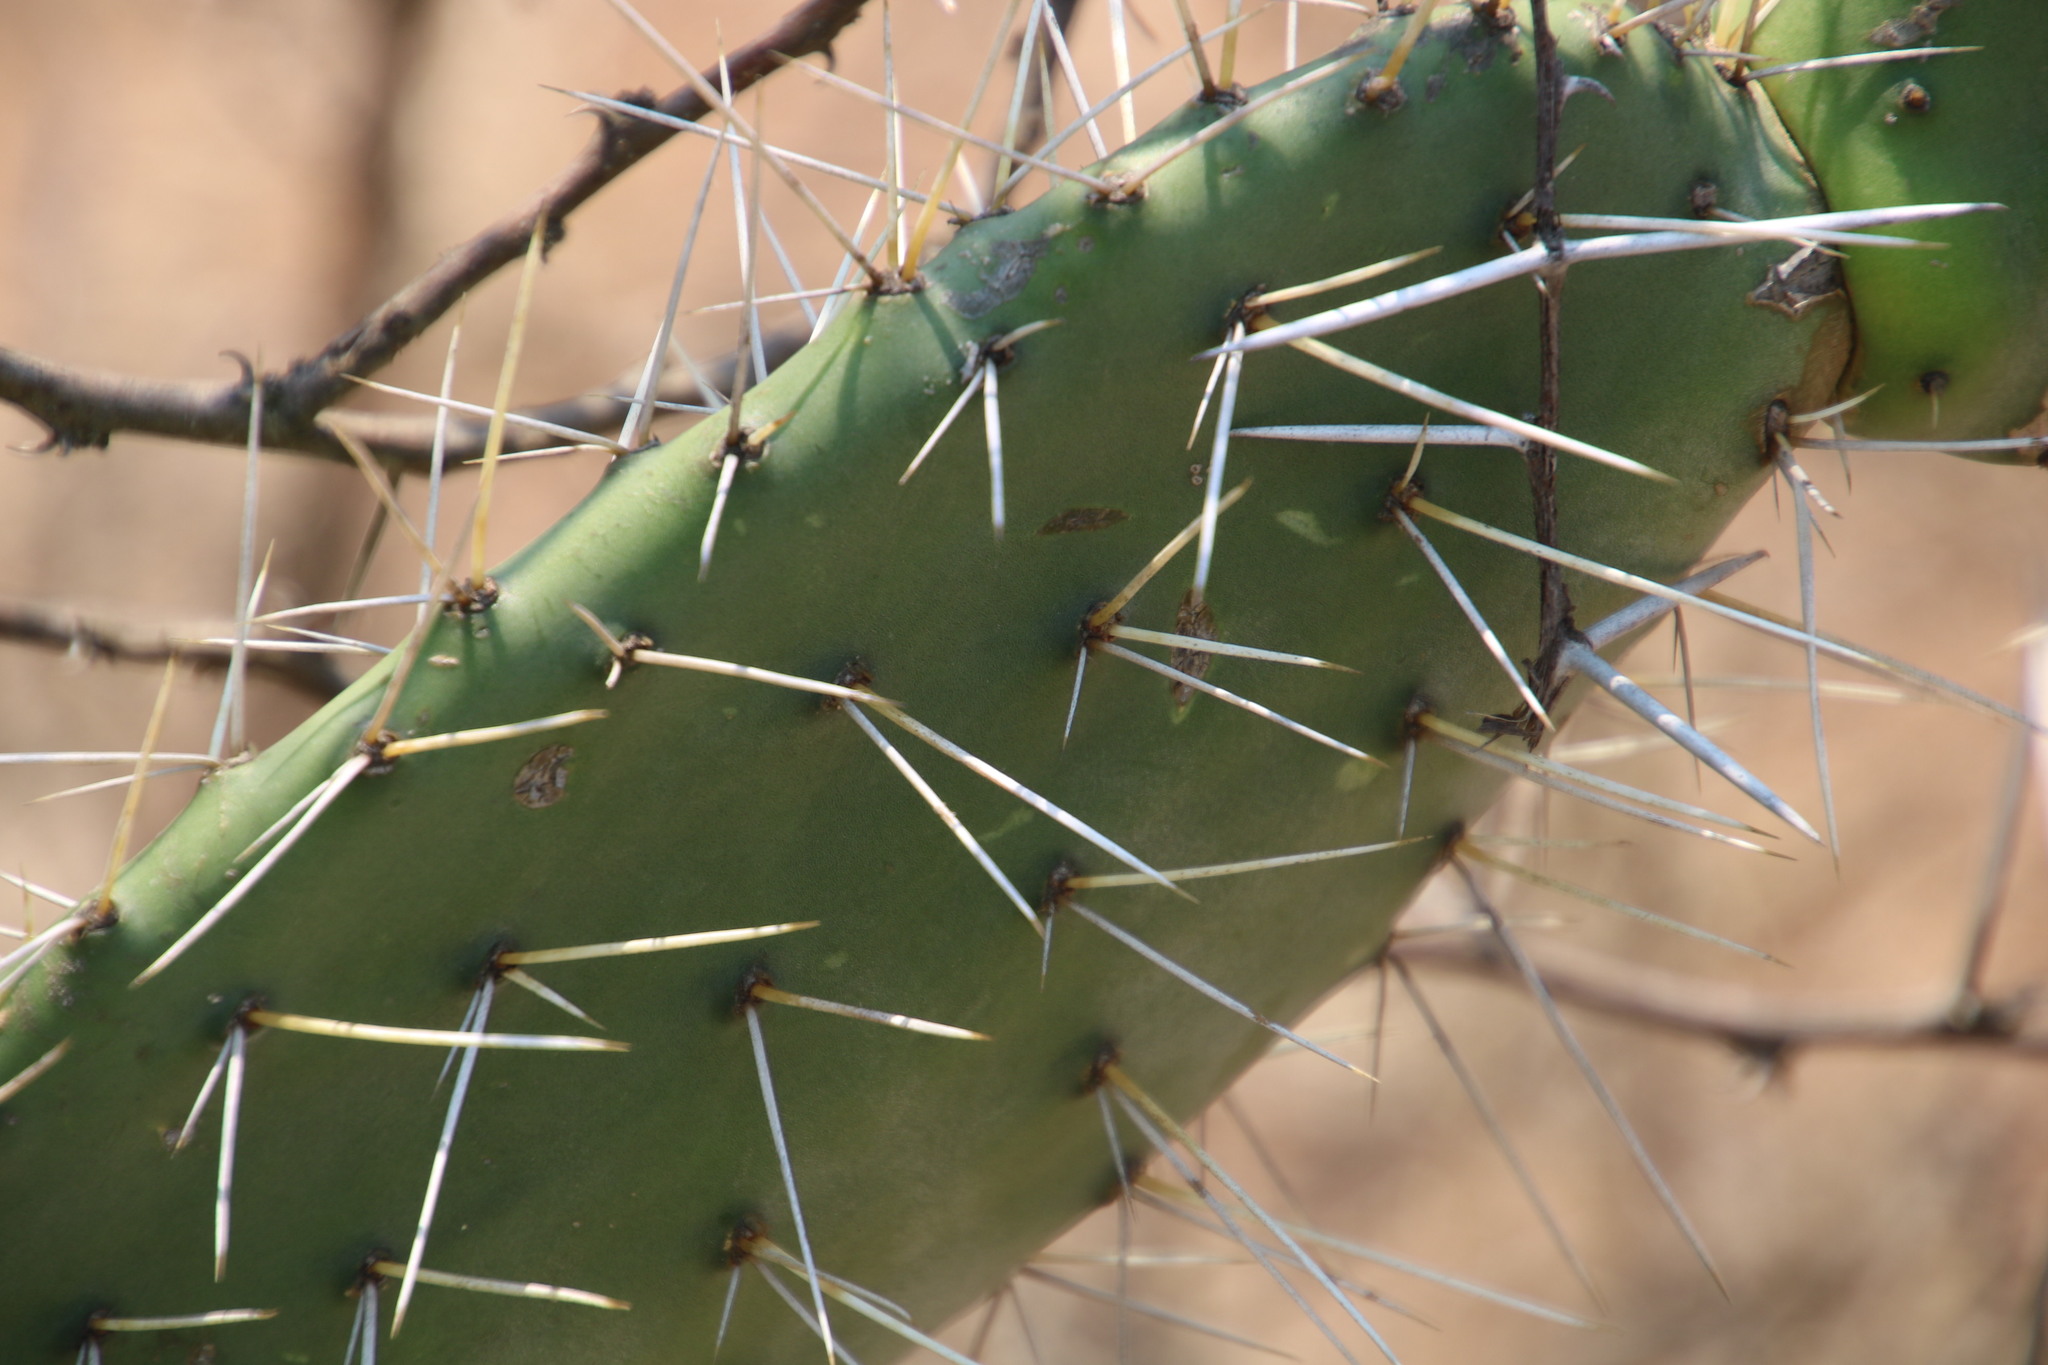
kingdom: Plantae
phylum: Tracheophyta
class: Magnoliopsida
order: Caryophyllales
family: Cactaceae
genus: Opuntia
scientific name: Opuntia ficus-indica
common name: Barbary fig
